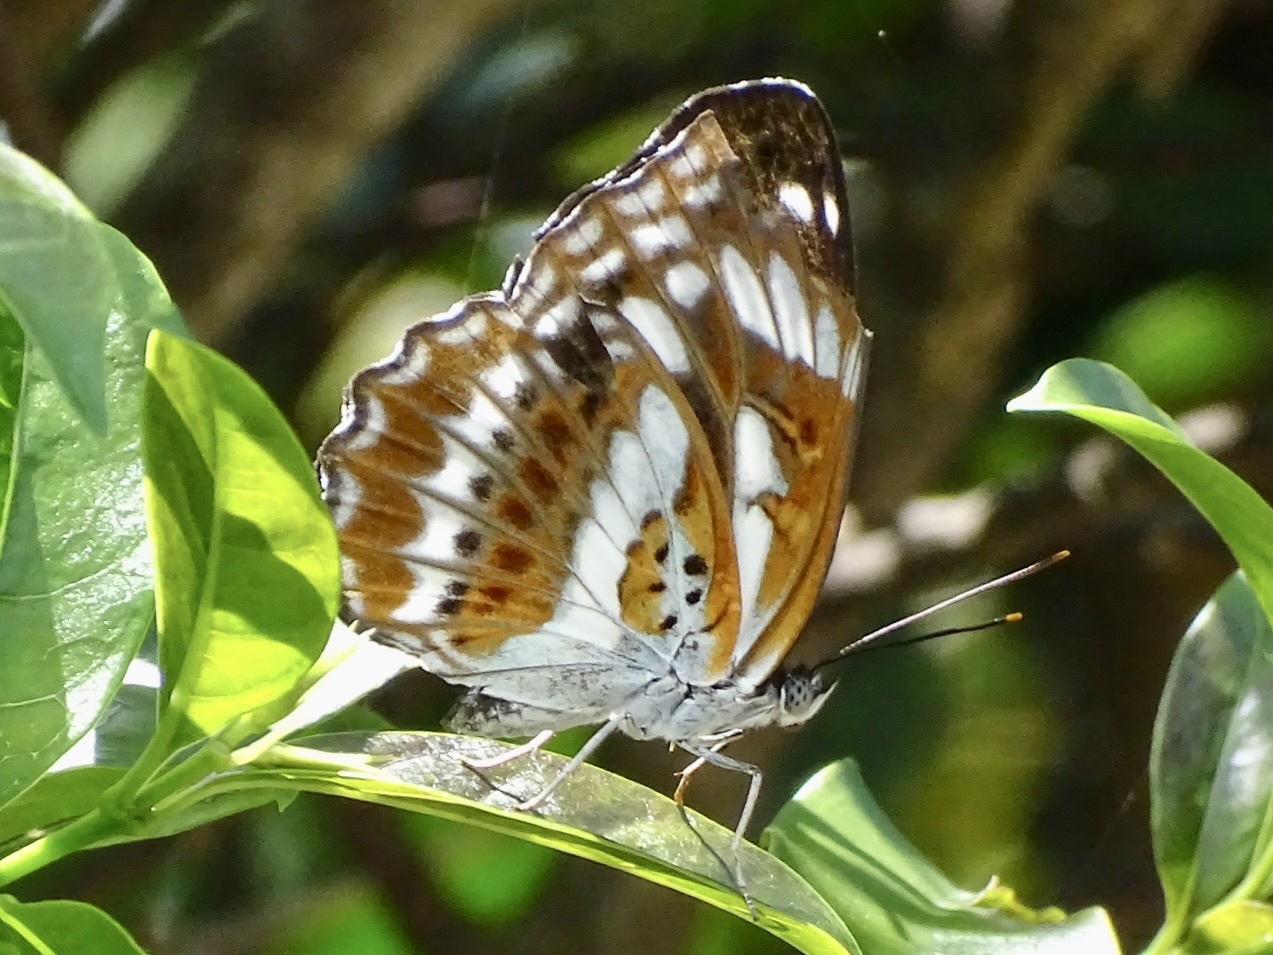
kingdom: Animalia
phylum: Arthropoda
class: Insecta
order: Lepidoptera
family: Nymphalidae
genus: Limenitis
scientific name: Limenitis sulpitia
